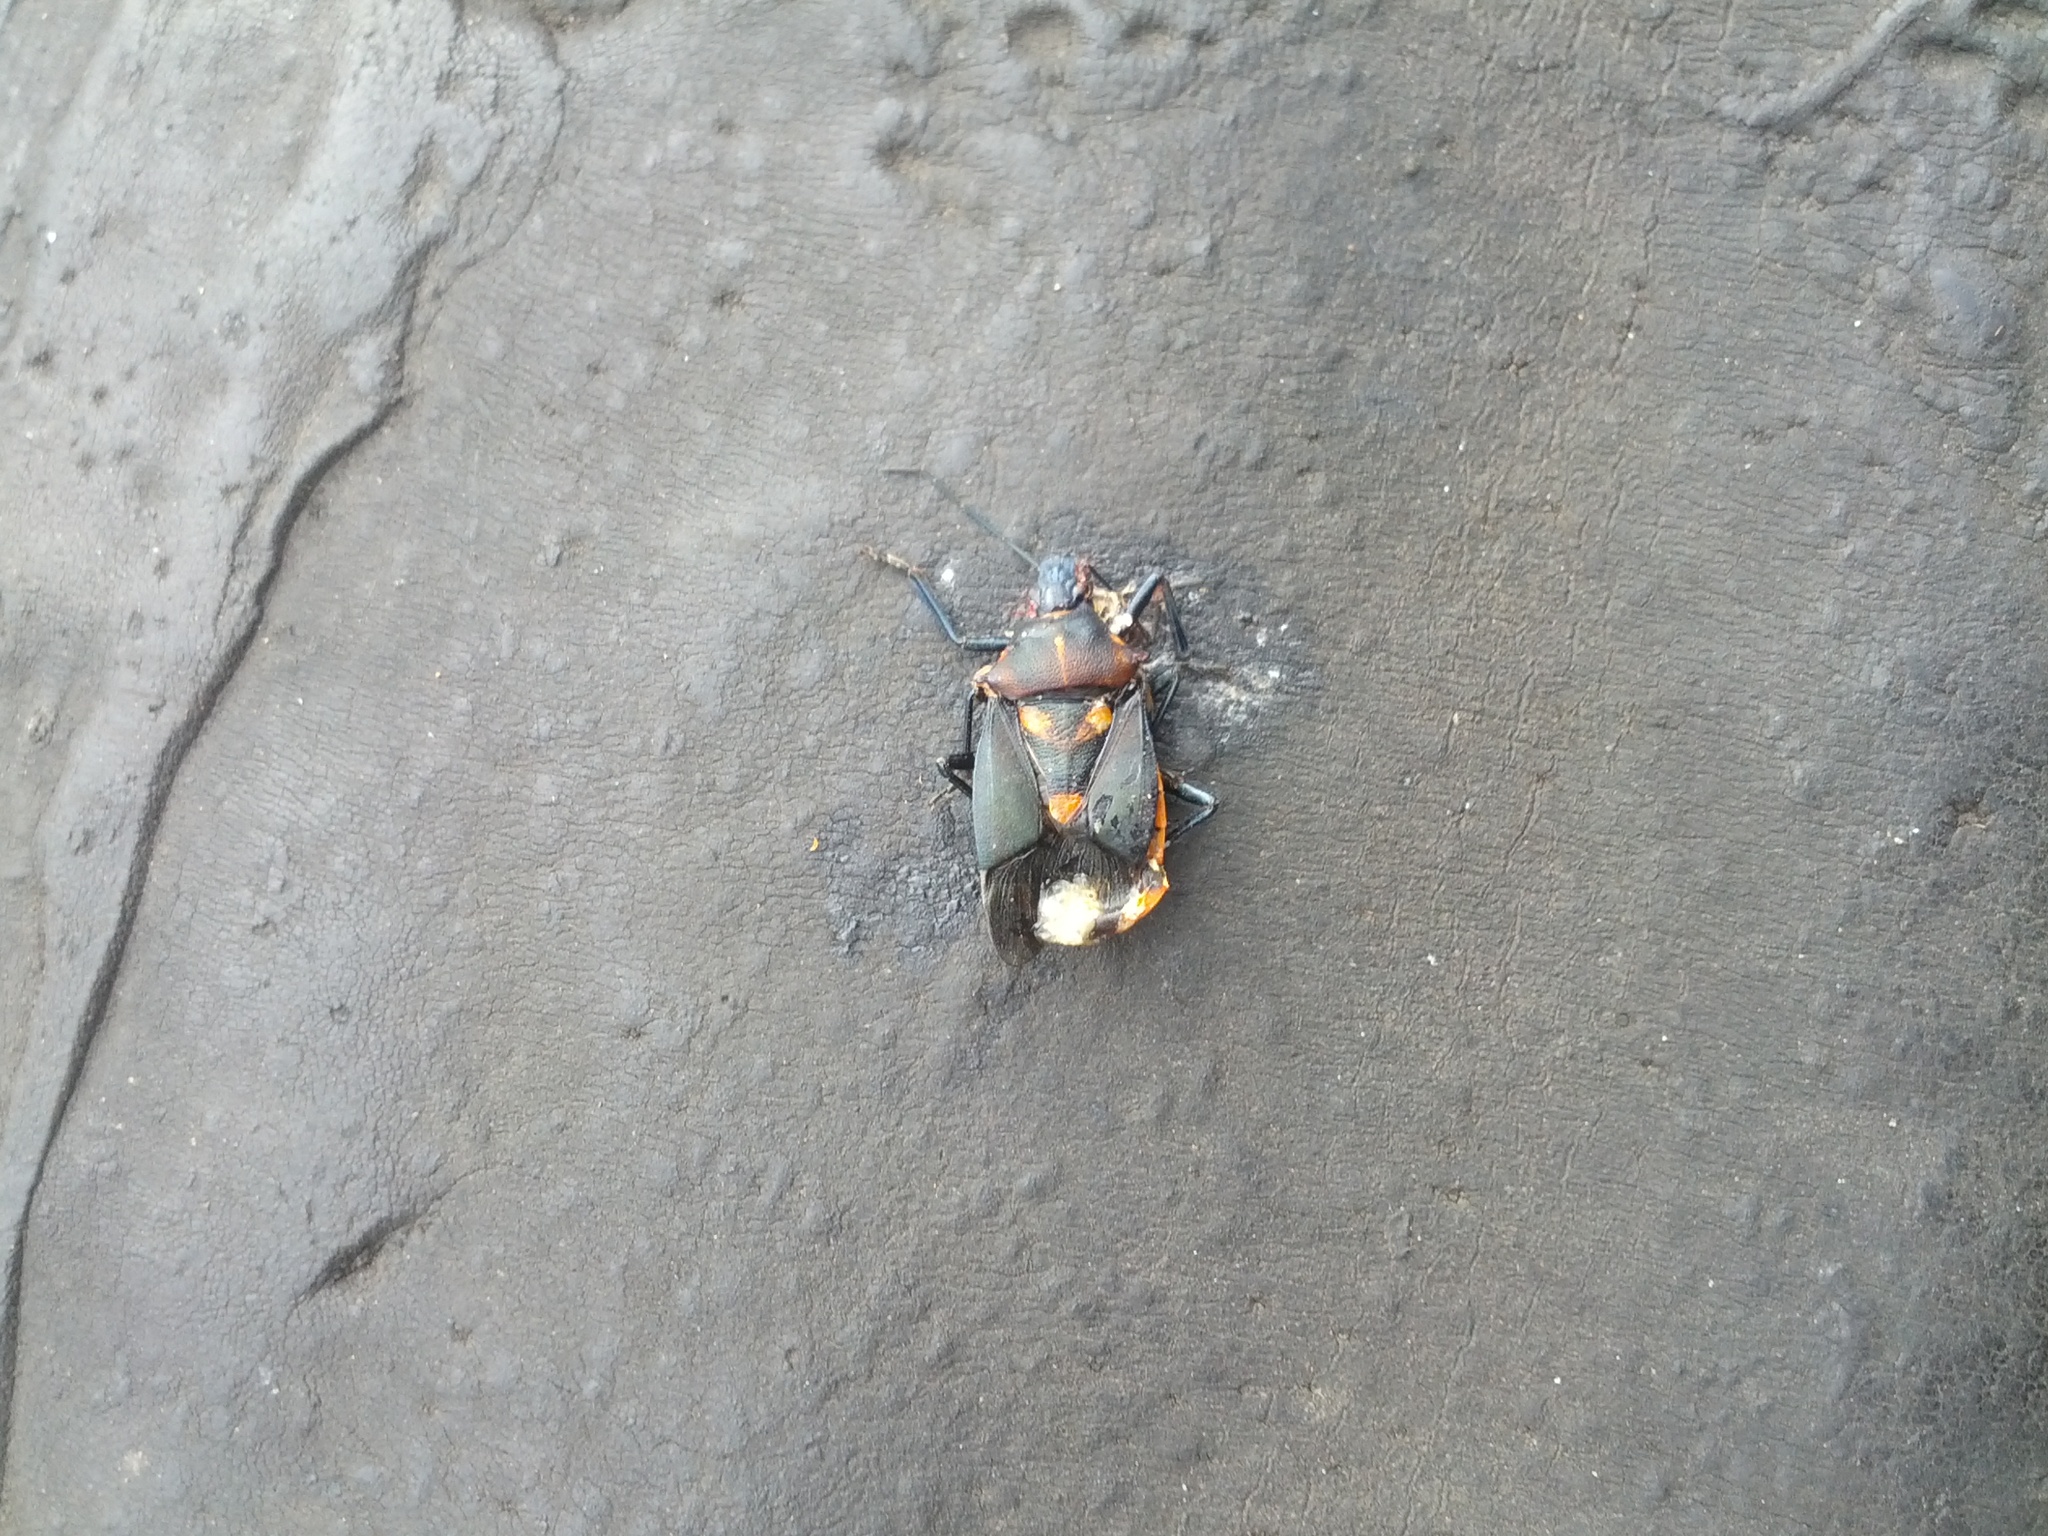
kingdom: Animalia
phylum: Arthropoda
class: Insecta
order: Hemiptera
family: Pentatomidae
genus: Euthyrhynchus
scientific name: Euthyrhynchus floridanus
